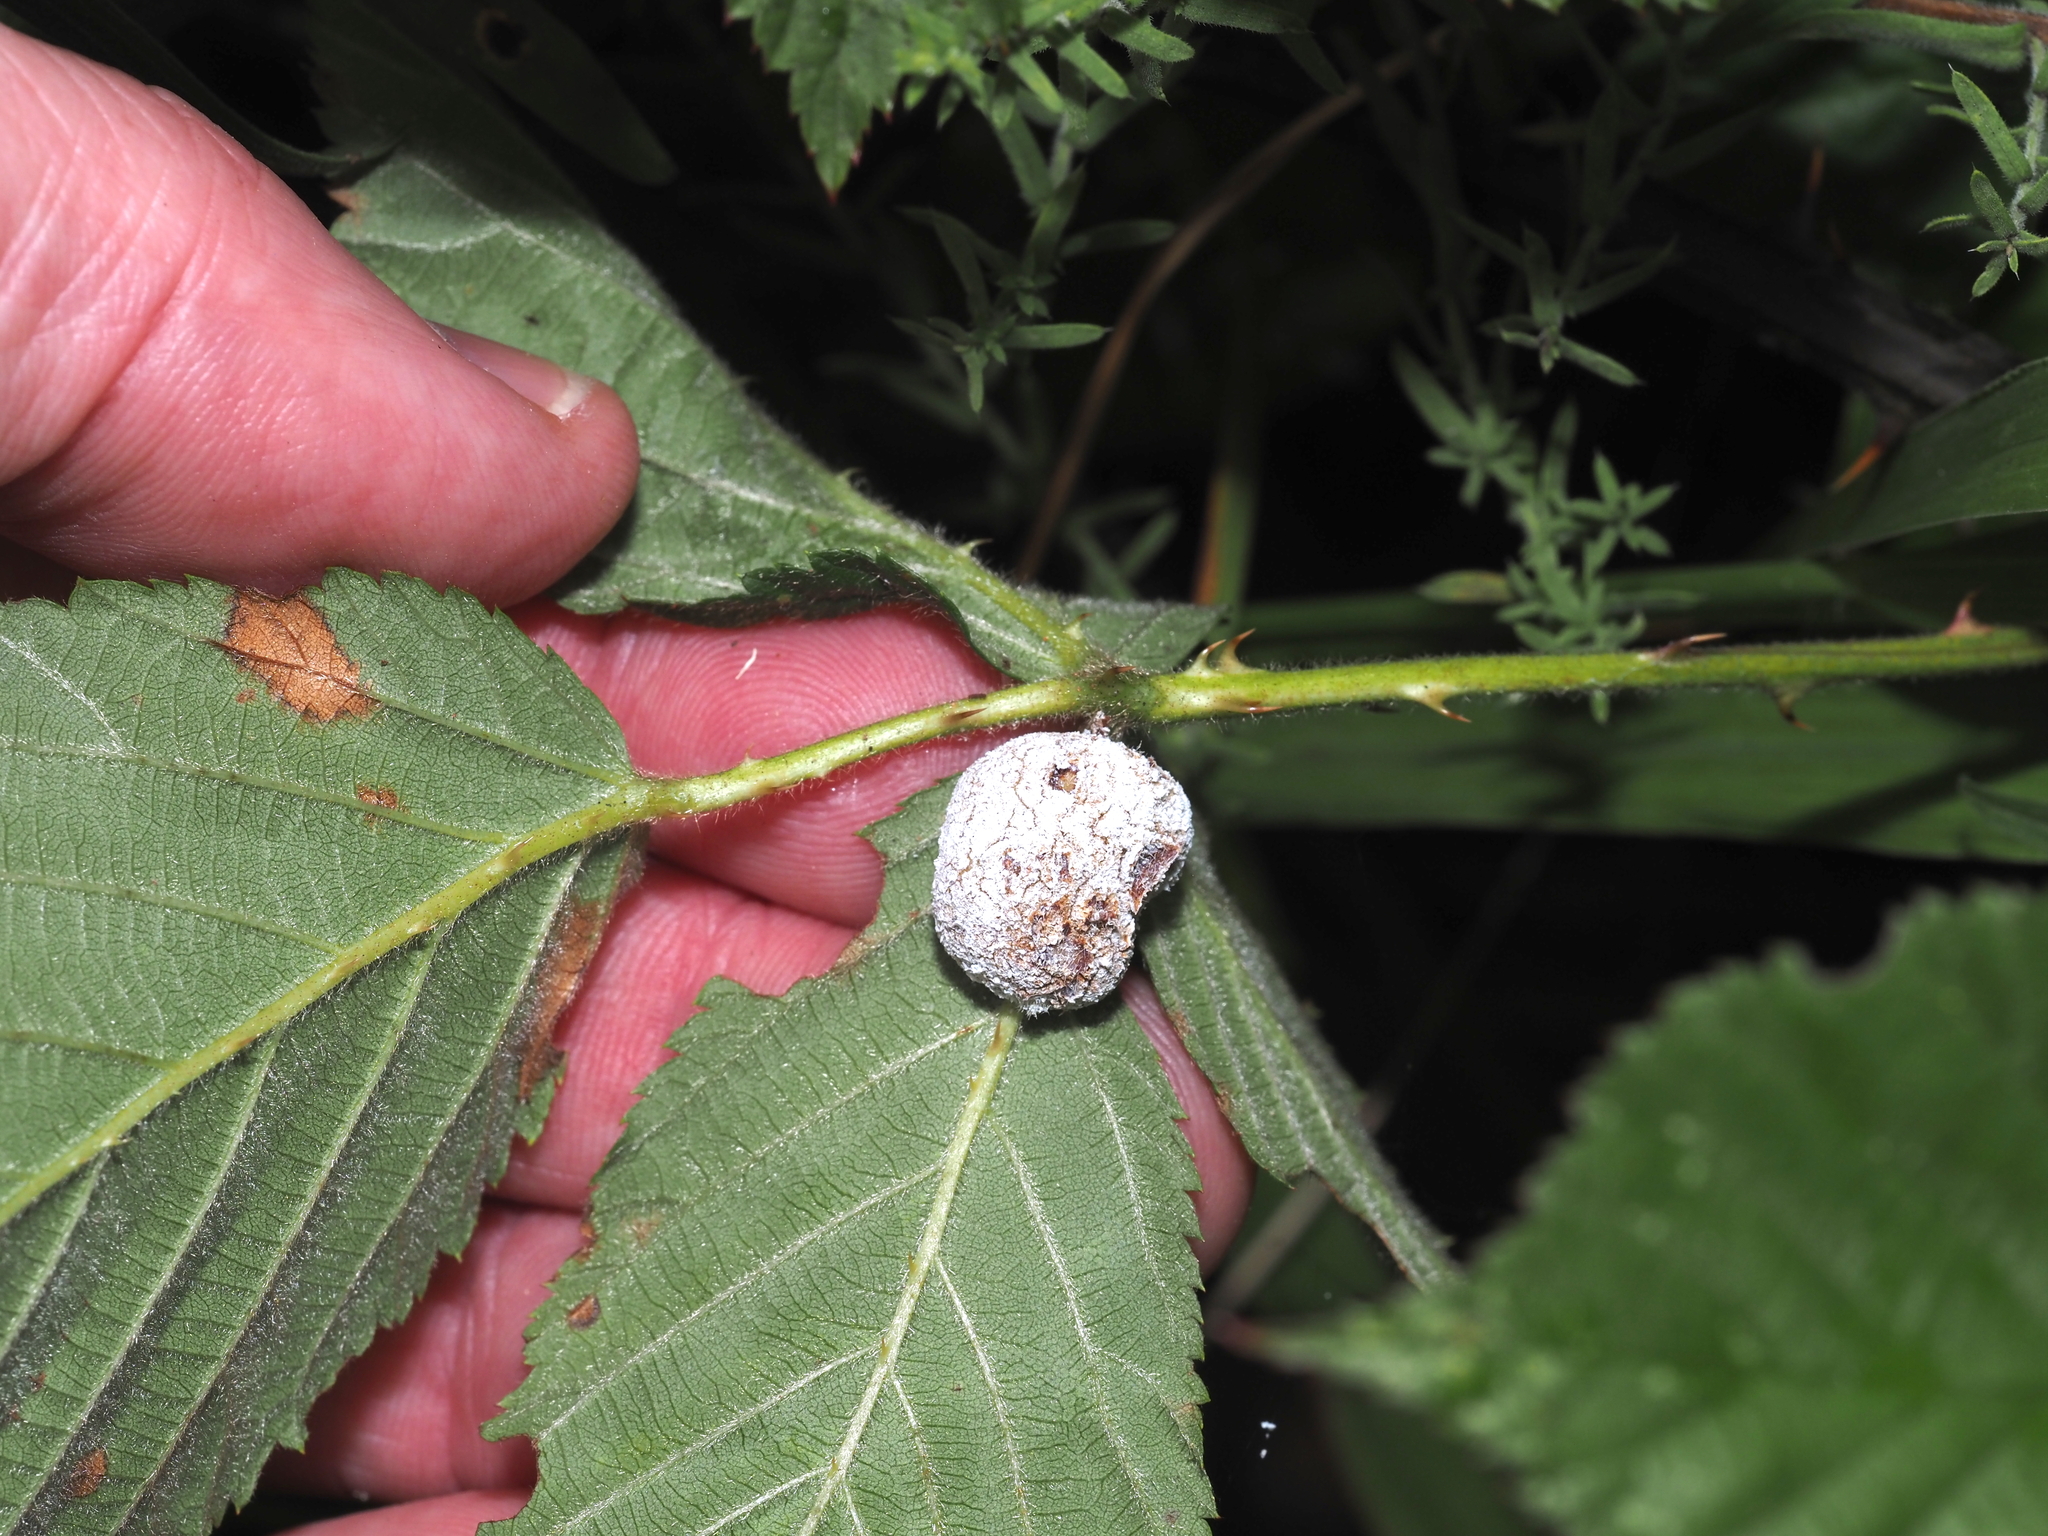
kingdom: Animalia
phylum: Arthropoda
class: Insecta
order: Diptera
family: Cecidomyiidae
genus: Neolasioptera
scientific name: Neolasioptera farinosa
